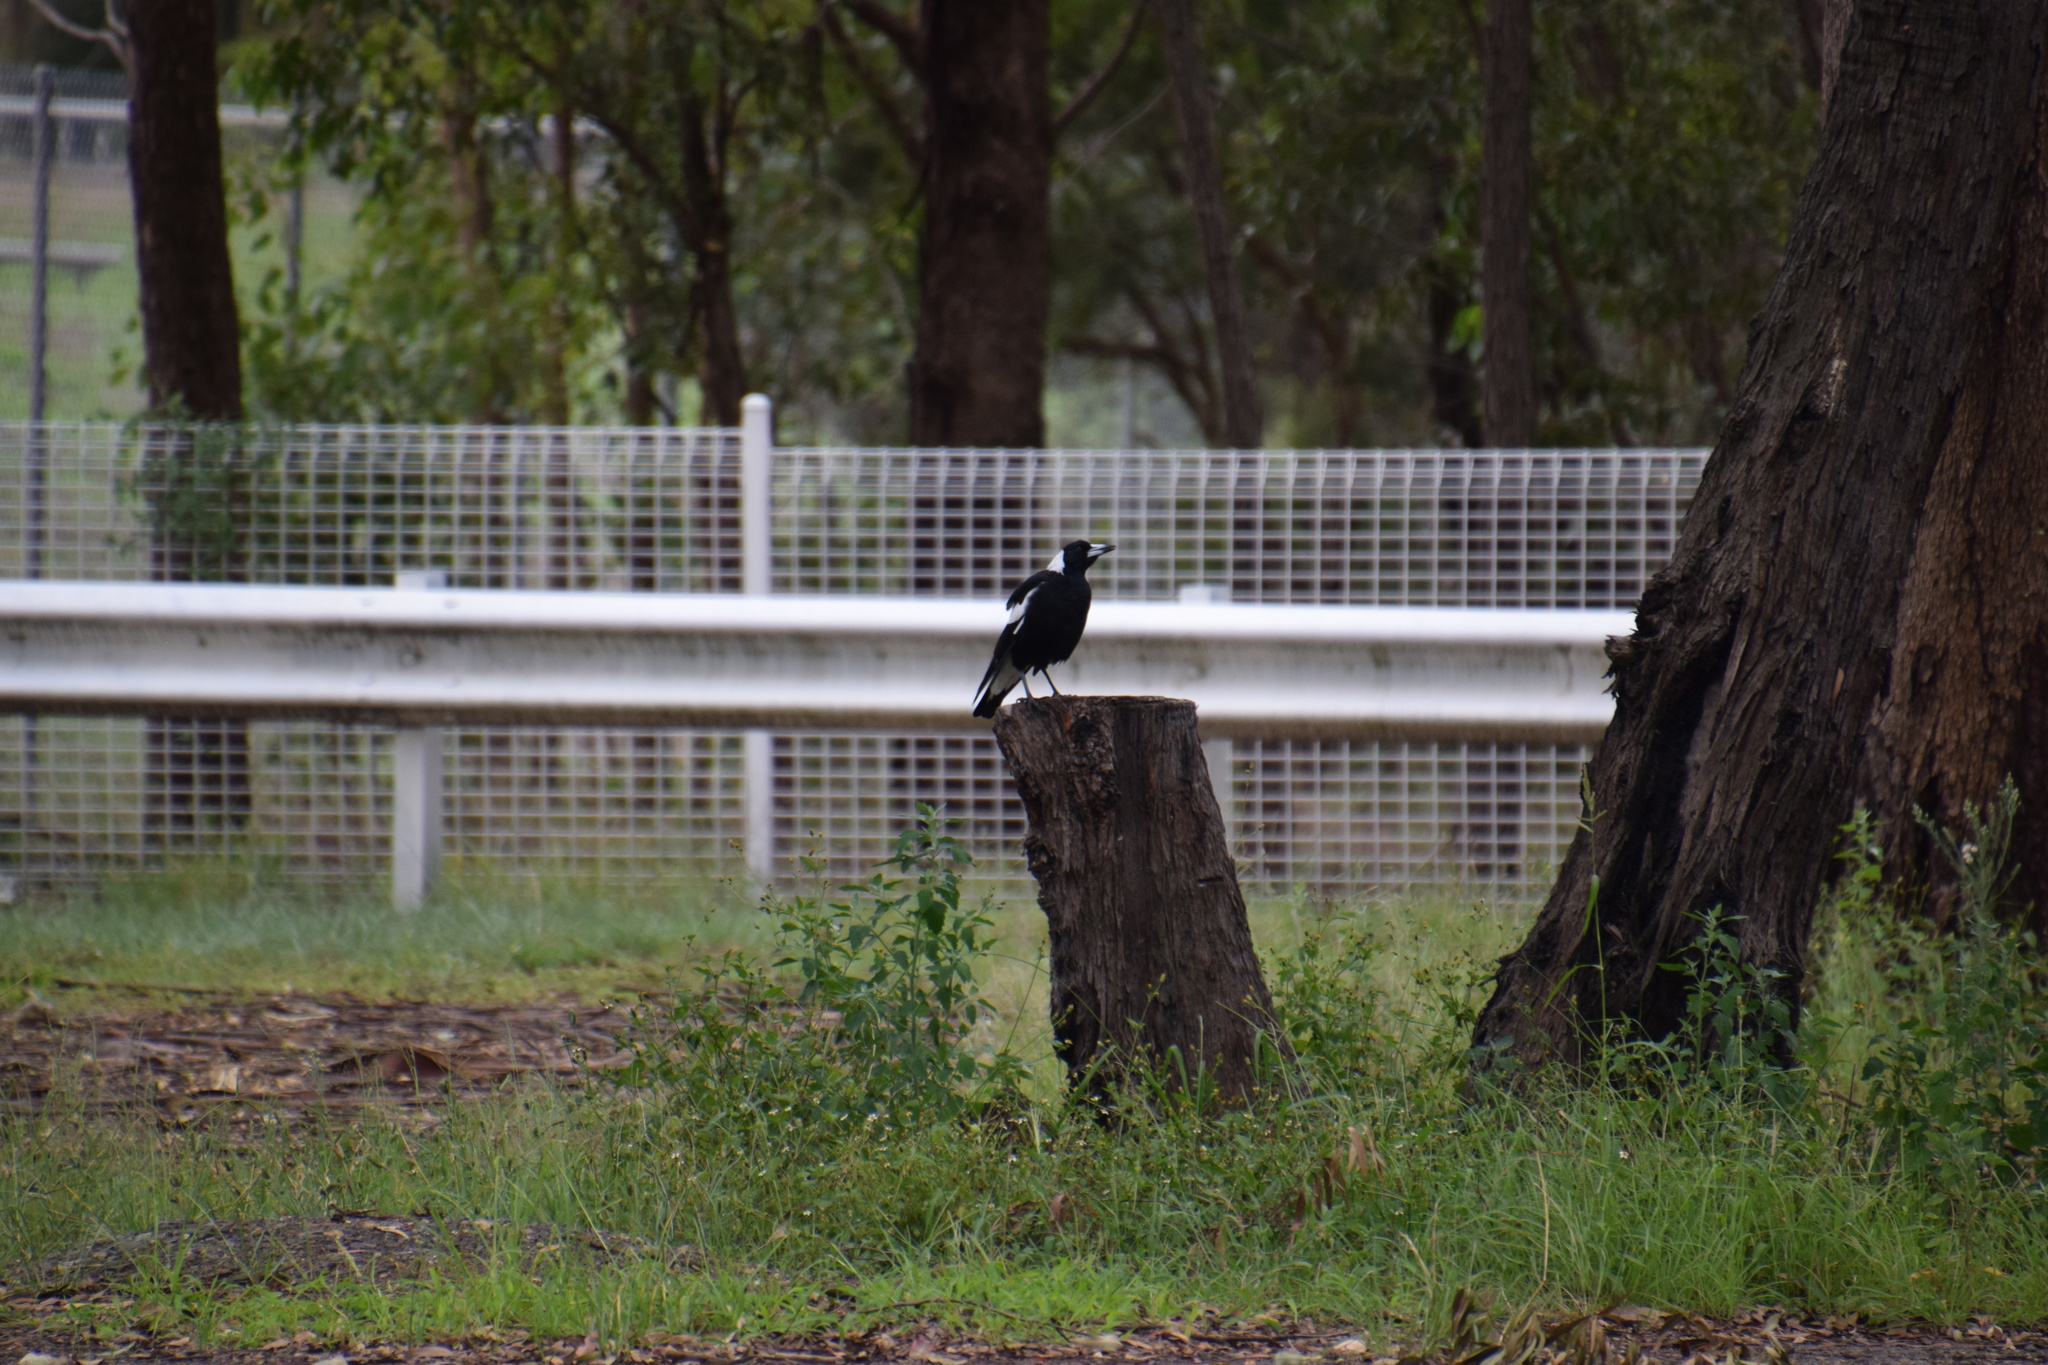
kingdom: Animalia
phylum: Chordata
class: Aves
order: Passeriformes
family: Cracticidae
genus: Gymnorhina
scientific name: Gymnorhina tibicen
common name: Australian magpie
